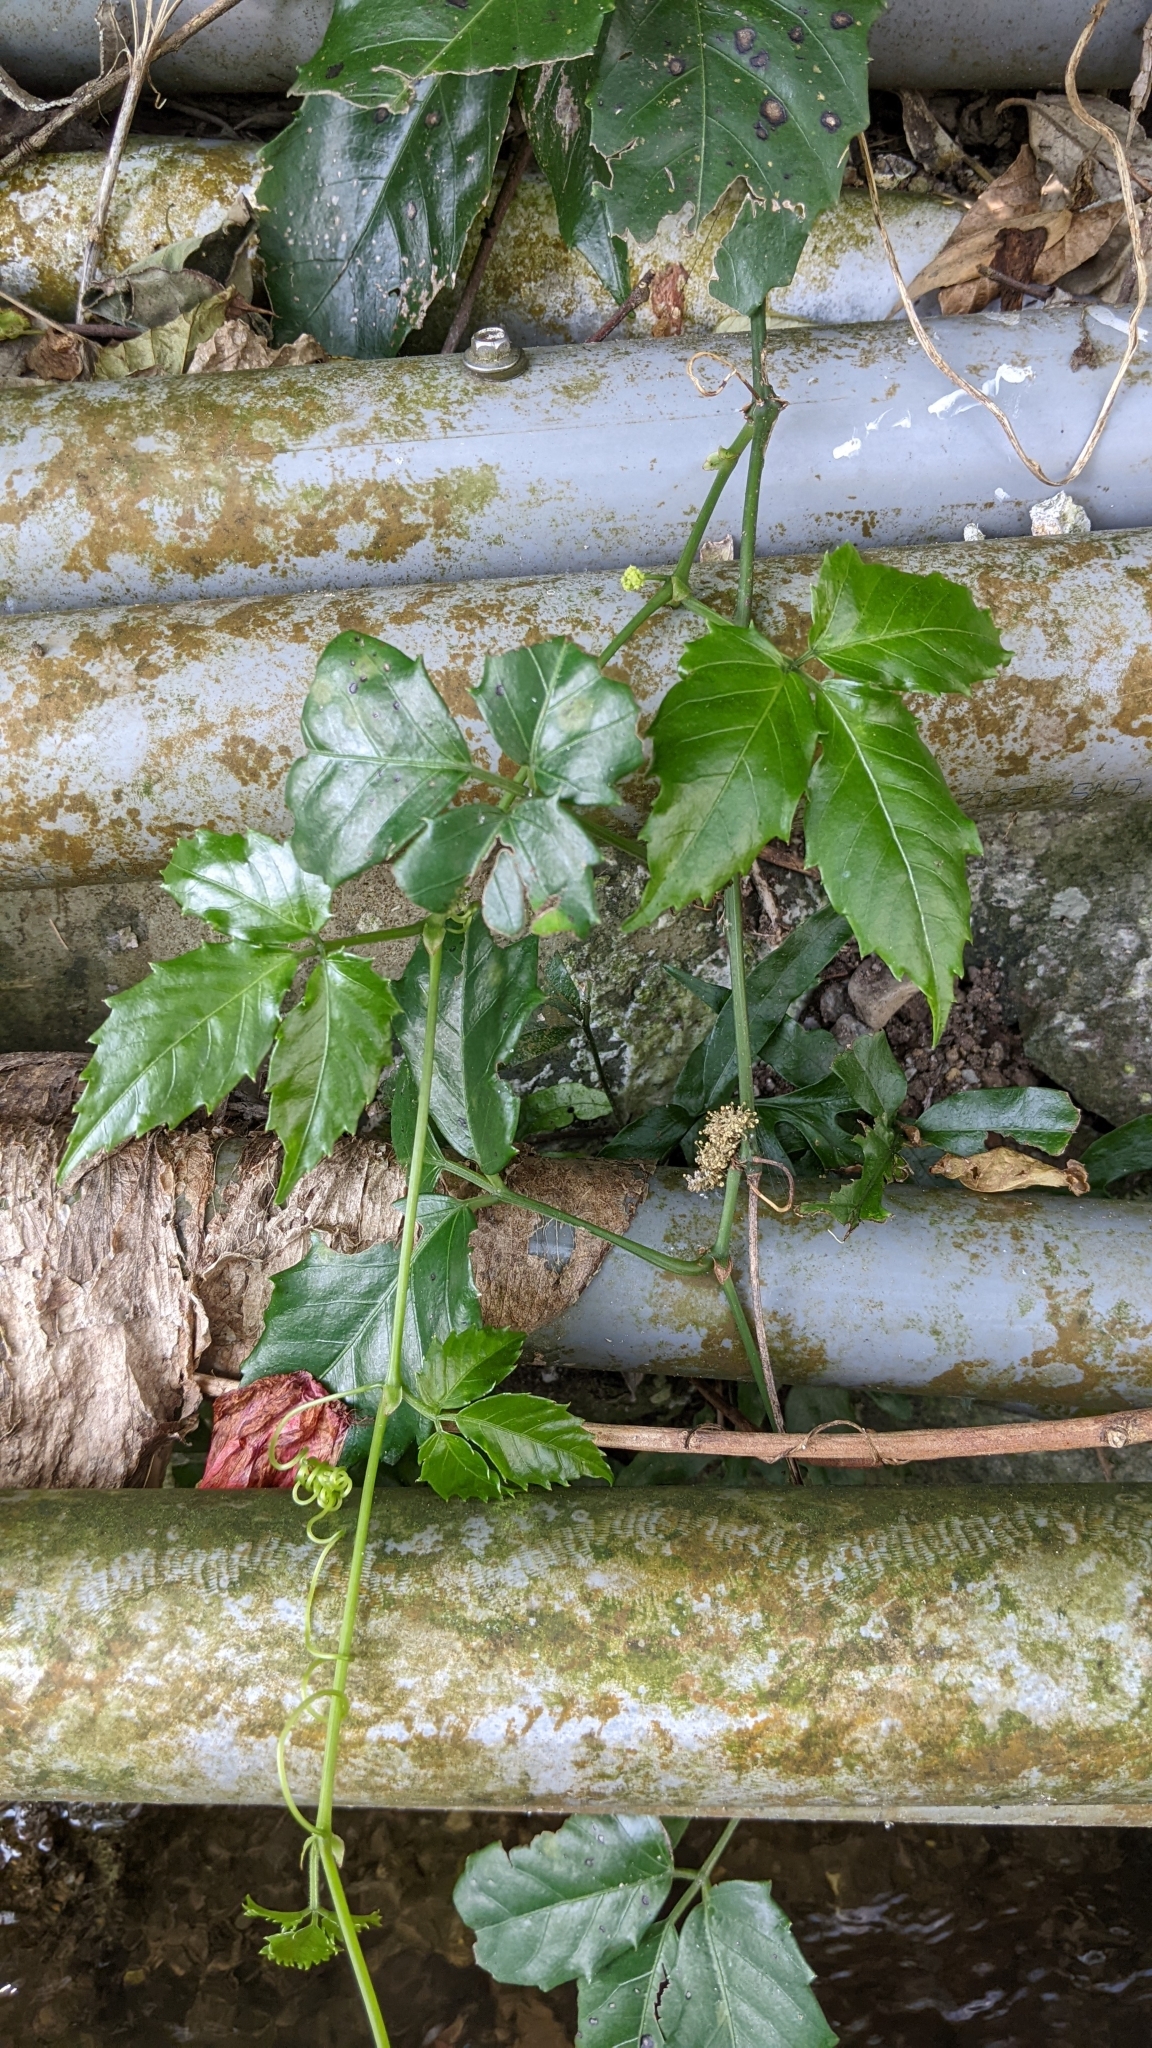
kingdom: Plantae
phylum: Tracheophyta
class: Magnoliopsida
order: Vitales
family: Vitaceae
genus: Tetrastigma
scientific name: Tetrastigma hemsleyanum
